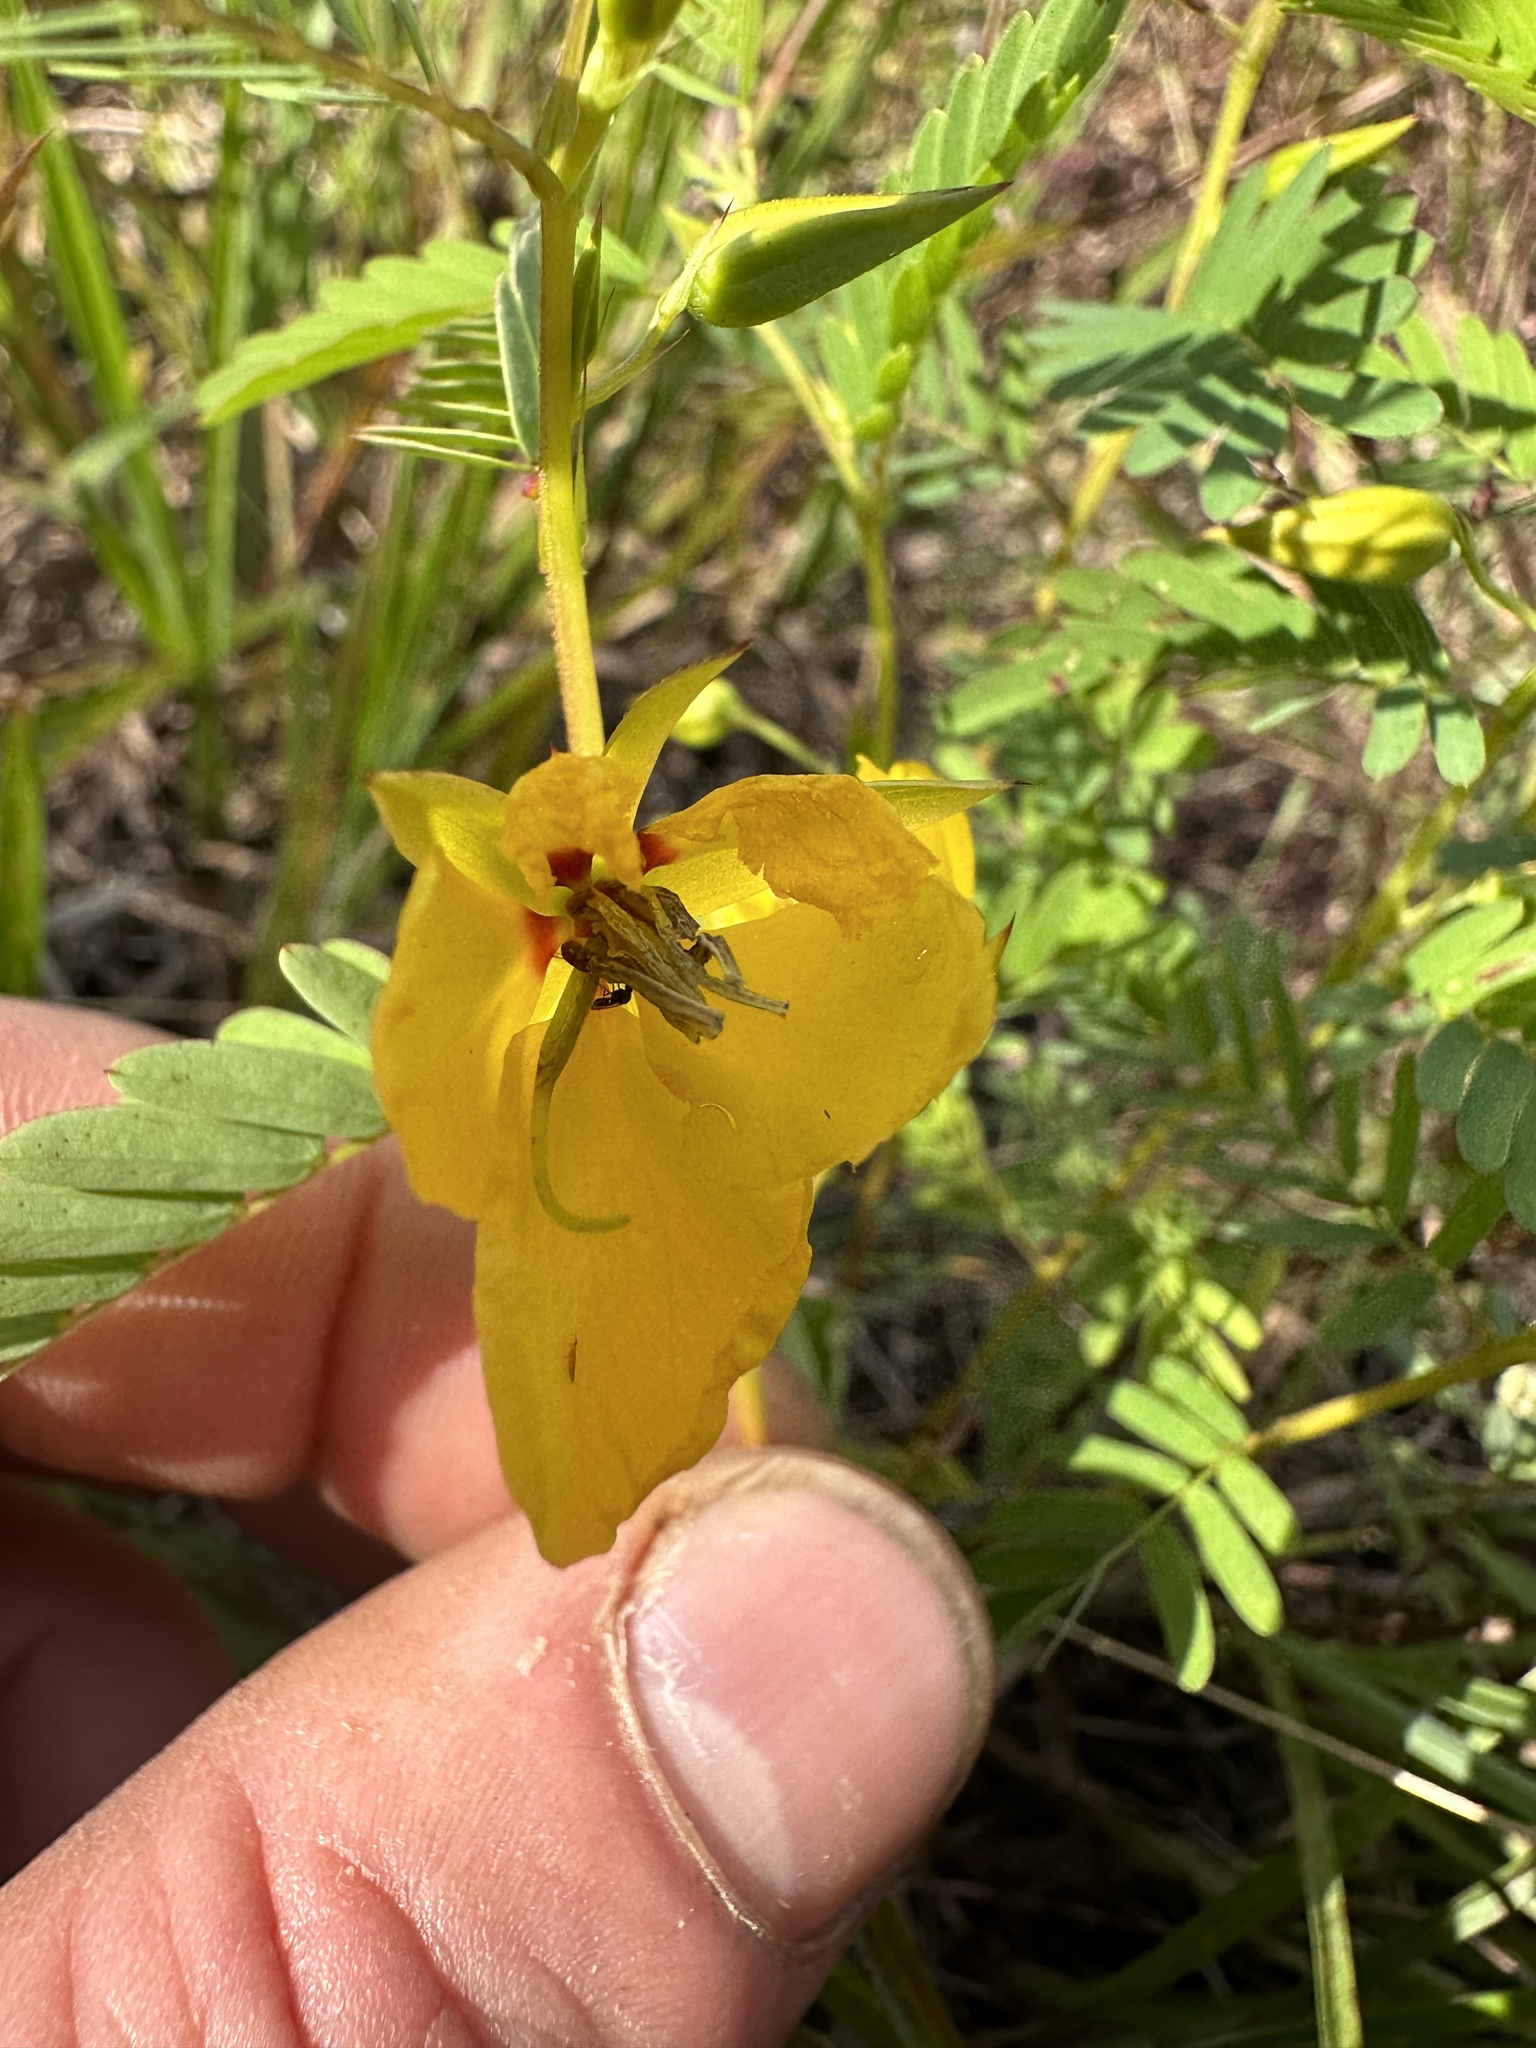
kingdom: Plantae
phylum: Tracheophyta
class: Magnoliopsida
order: Fabales
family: Fabaceae
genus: Chamaecrista
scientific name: Chamaecrista fasciculata
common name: Golden cassia
